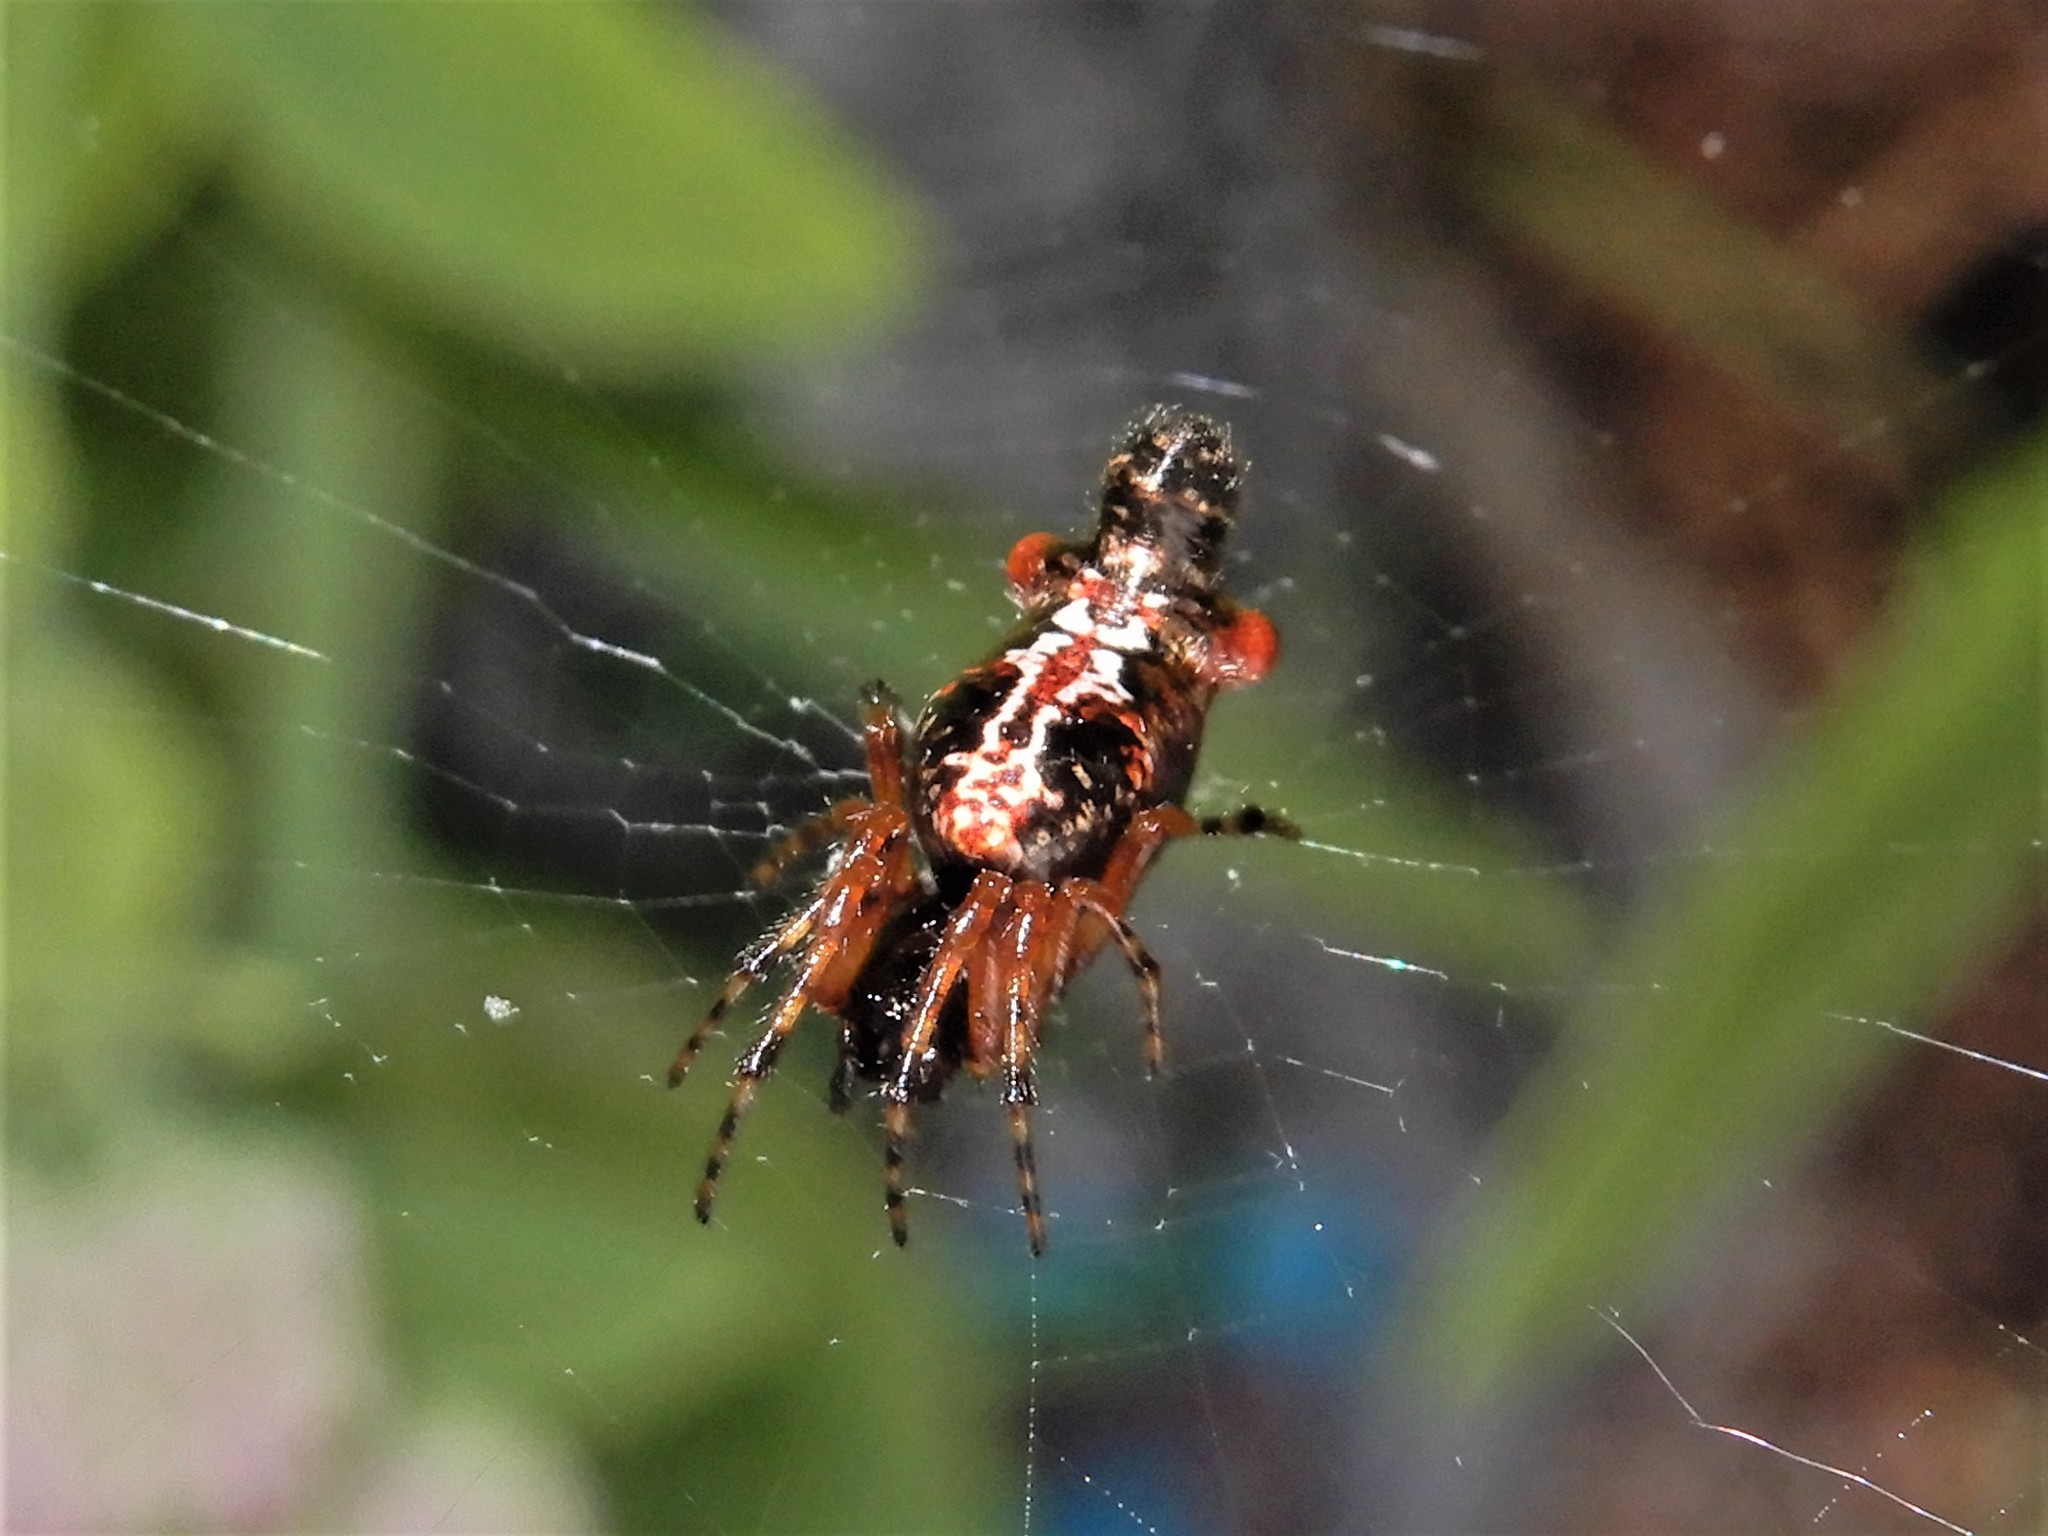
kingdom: Animalia
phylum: Arthropoda
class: Arachnida
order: Araneae
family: Araneidae
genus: Cyclosa
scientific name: Cyclosa trilobata
